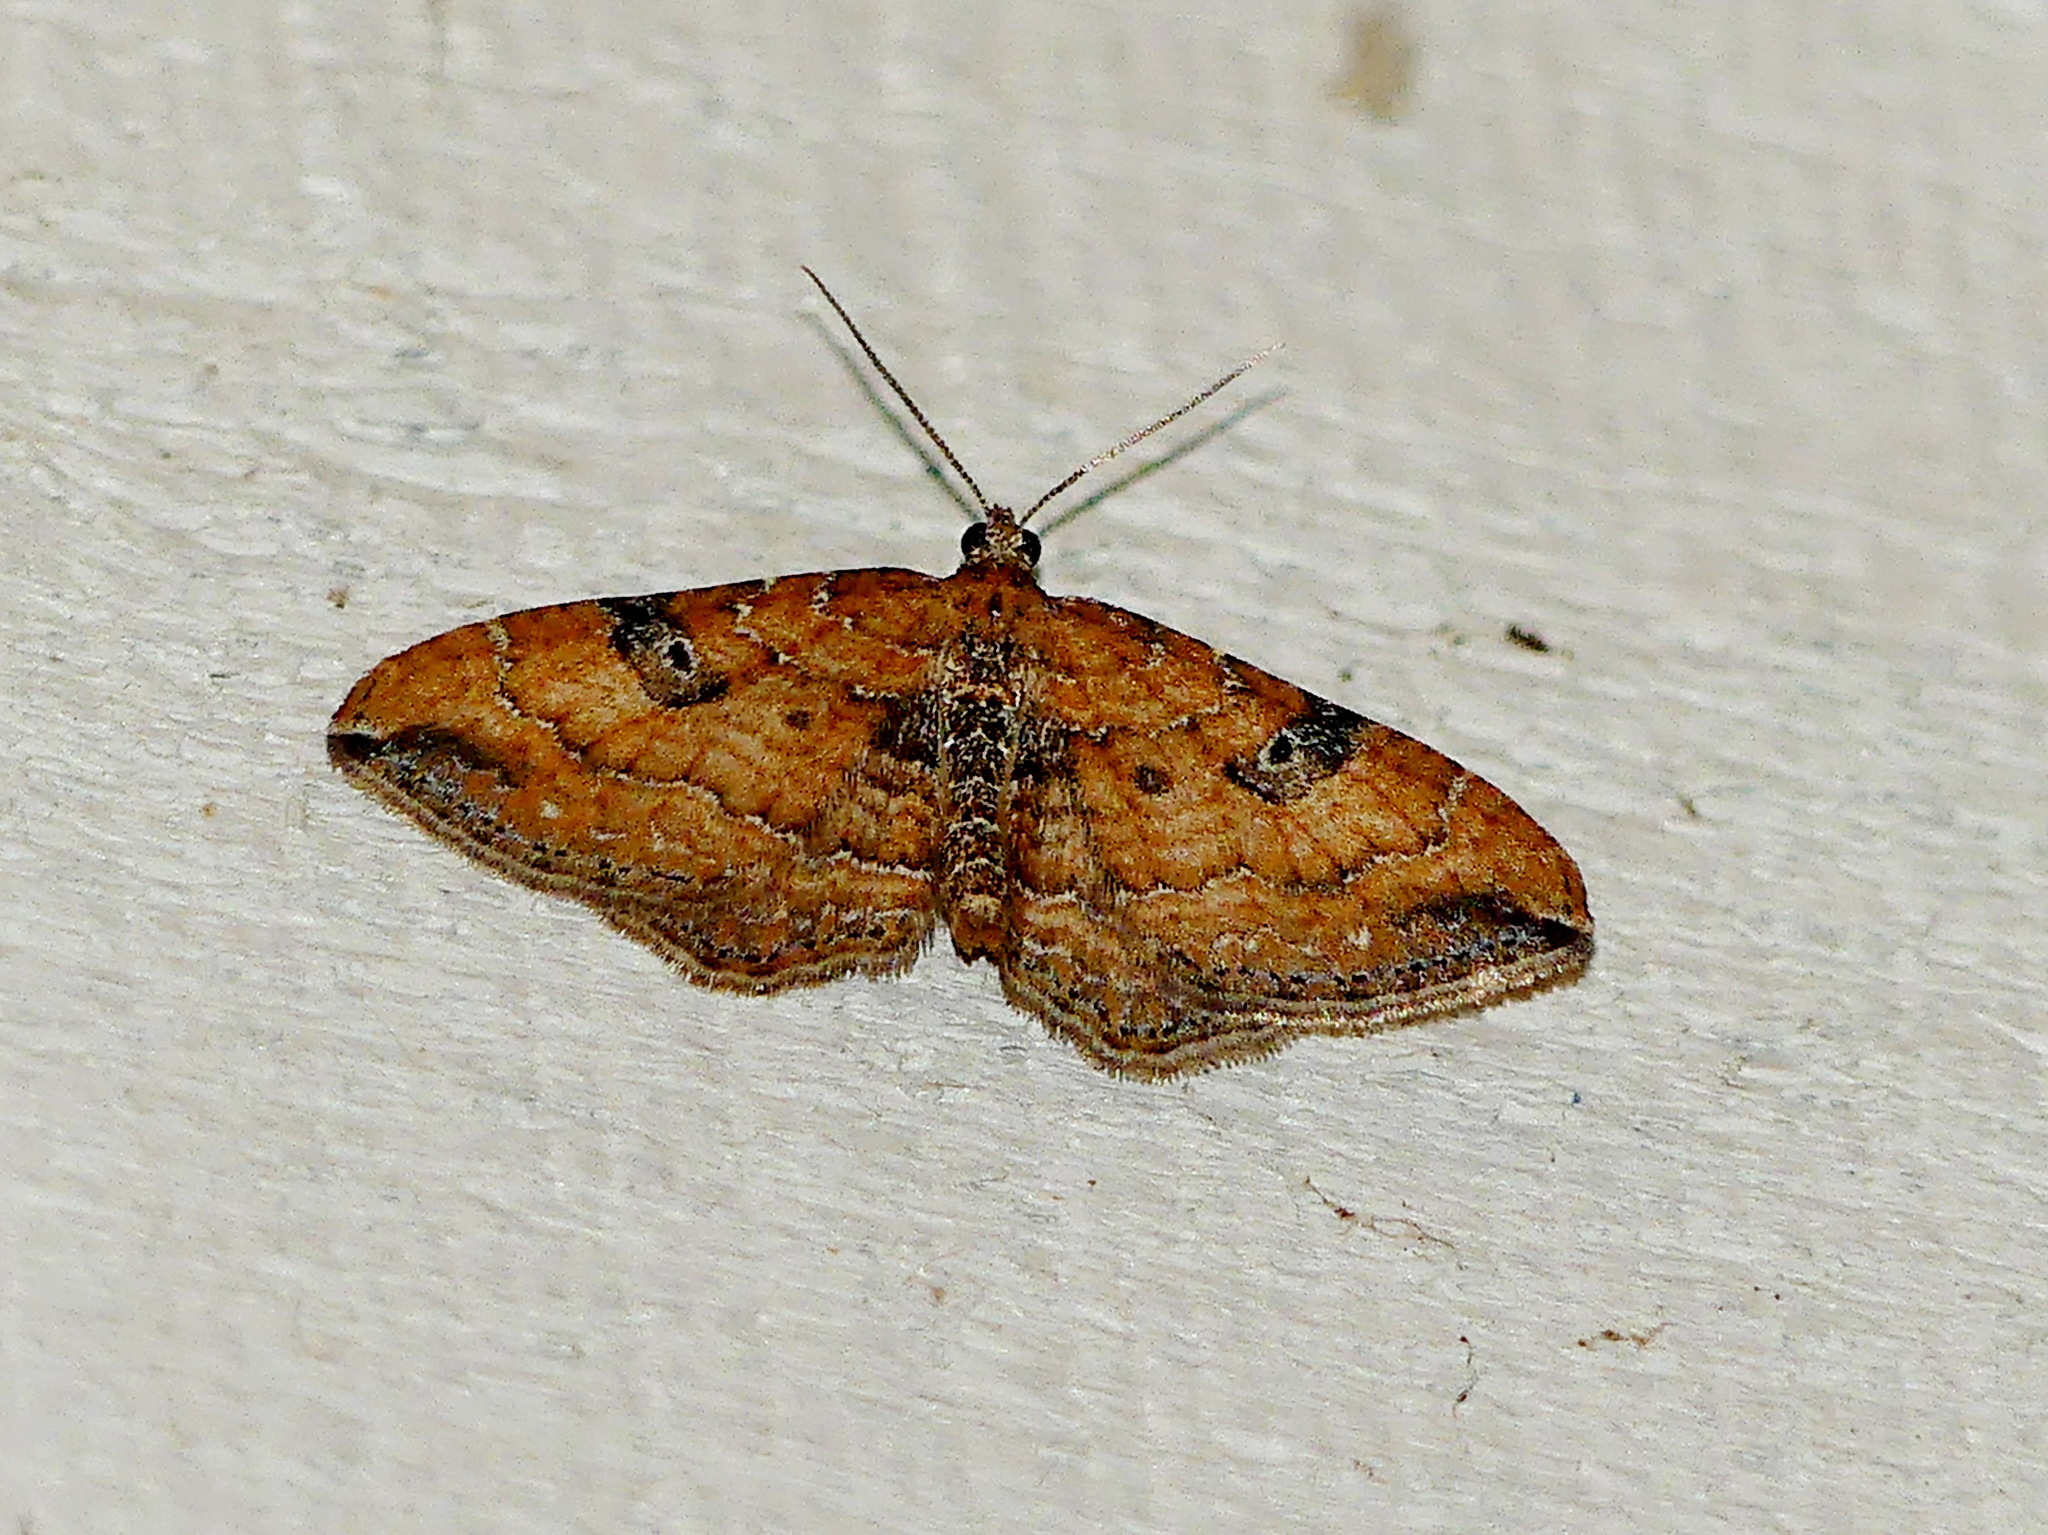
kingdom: Animalia
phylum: Arthropoda
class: Insecta
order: Lepidoptera
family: Geometridae
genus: Orthonama
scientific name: Orthonama obstipata
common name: The gem
